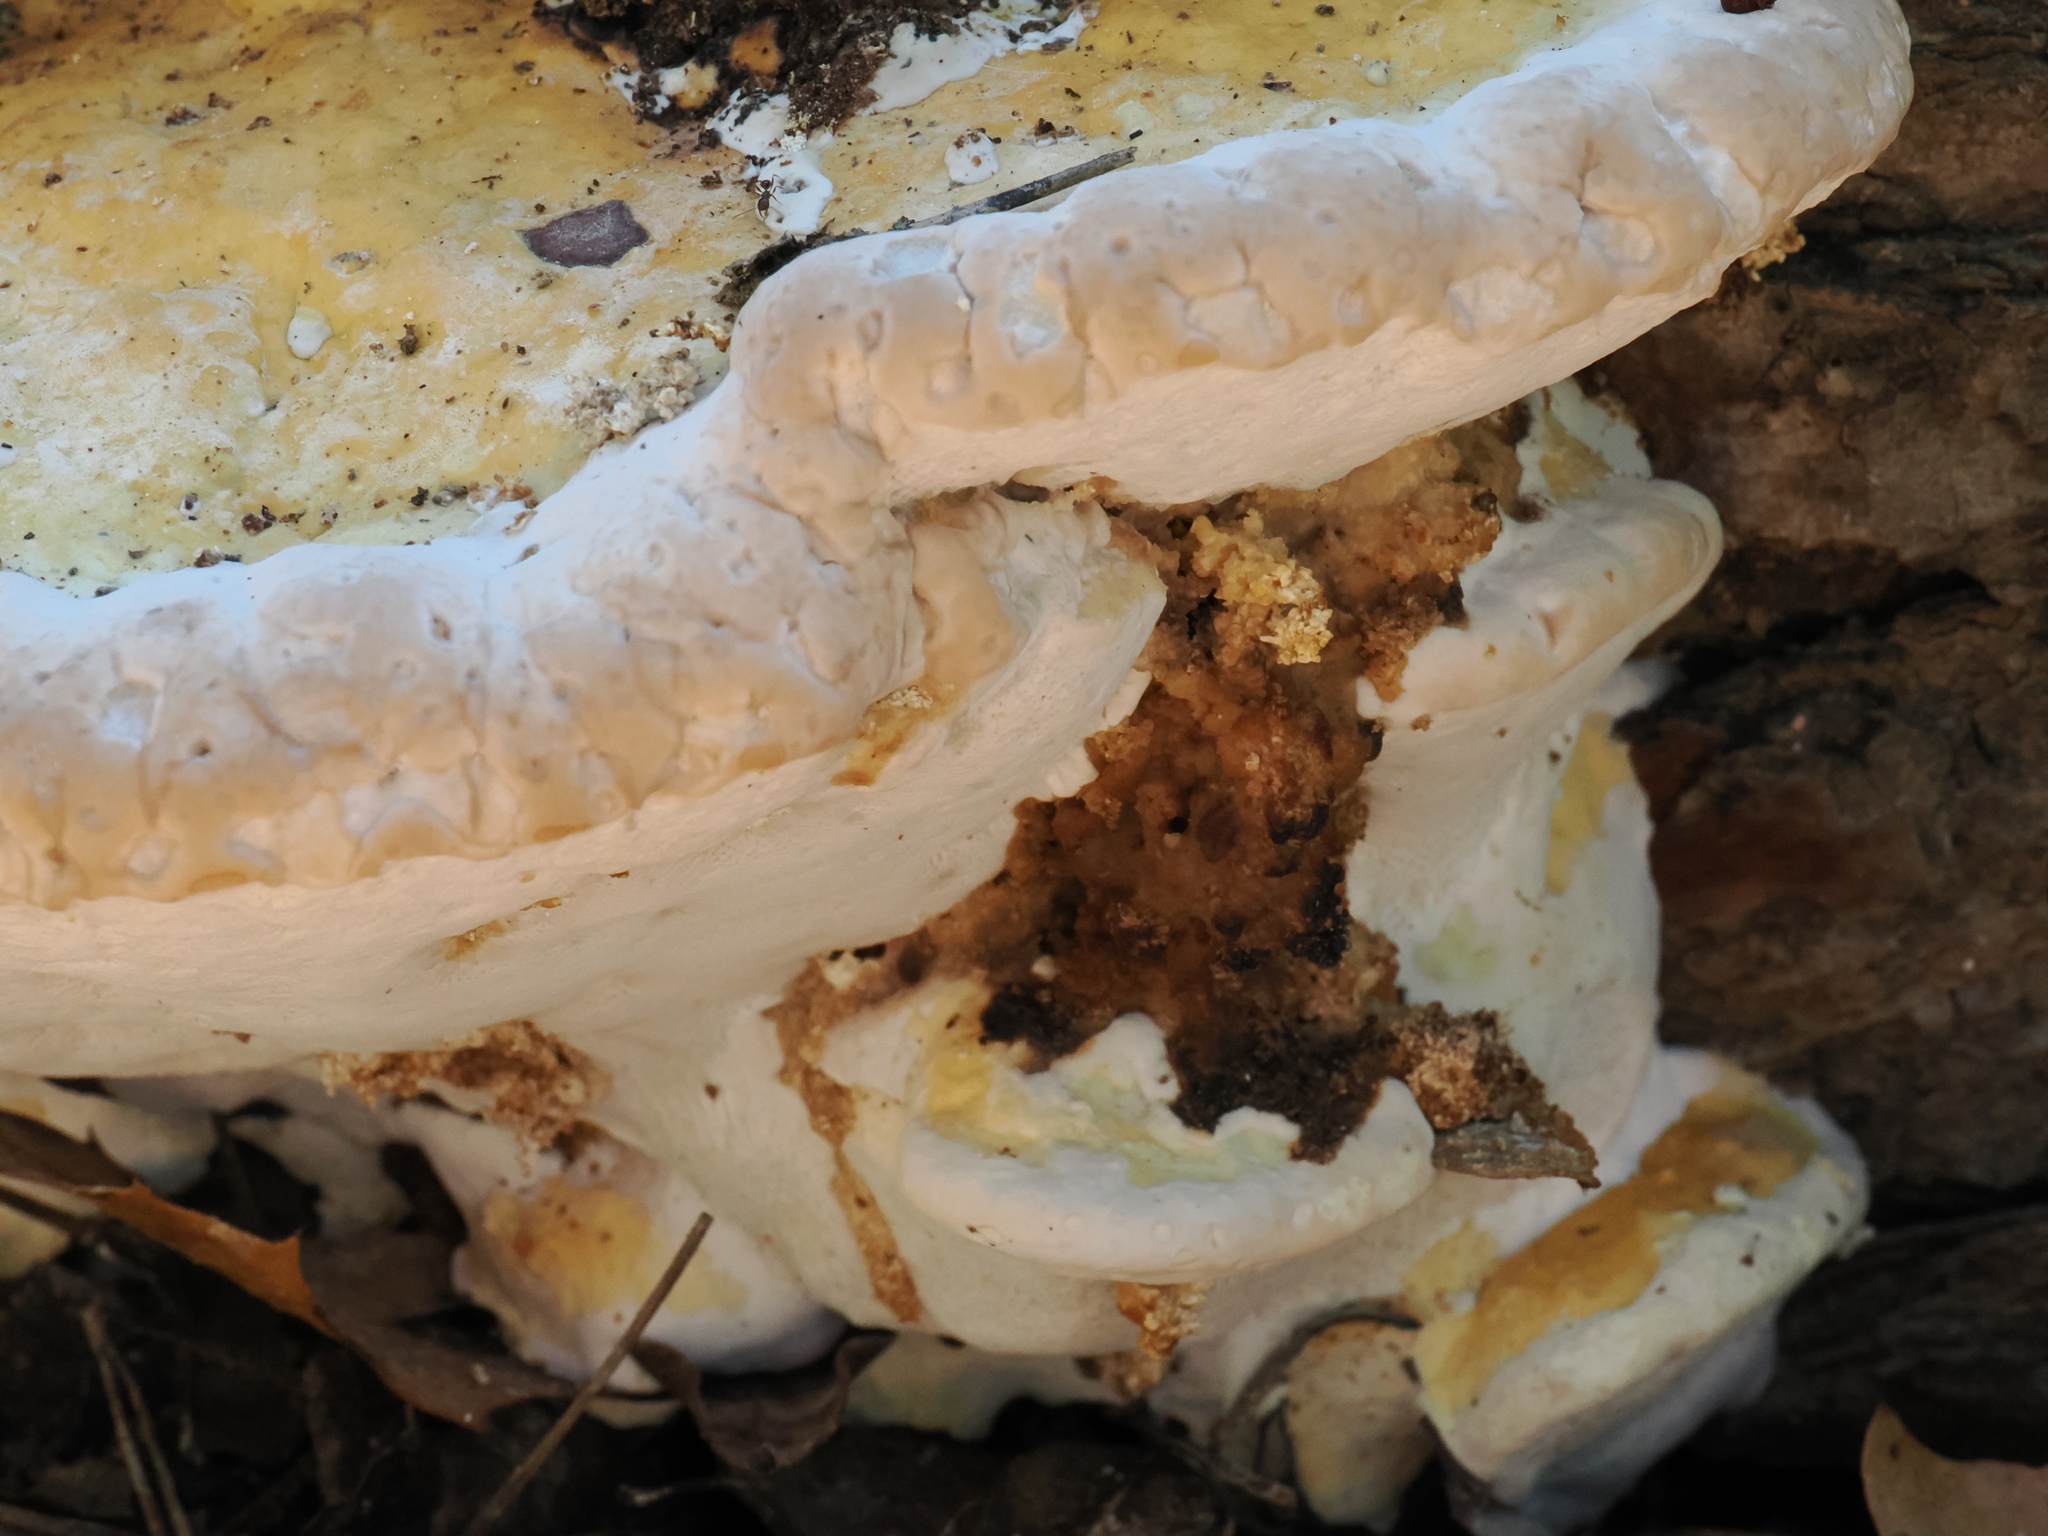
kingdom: Fungi
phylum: Basidiomycota
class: Agaricomycetes
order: Polyporales
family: Fomitopsidaceae
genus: Fomitopsis
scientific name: Fomitopsis pinicola
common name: Red-belted bracket
